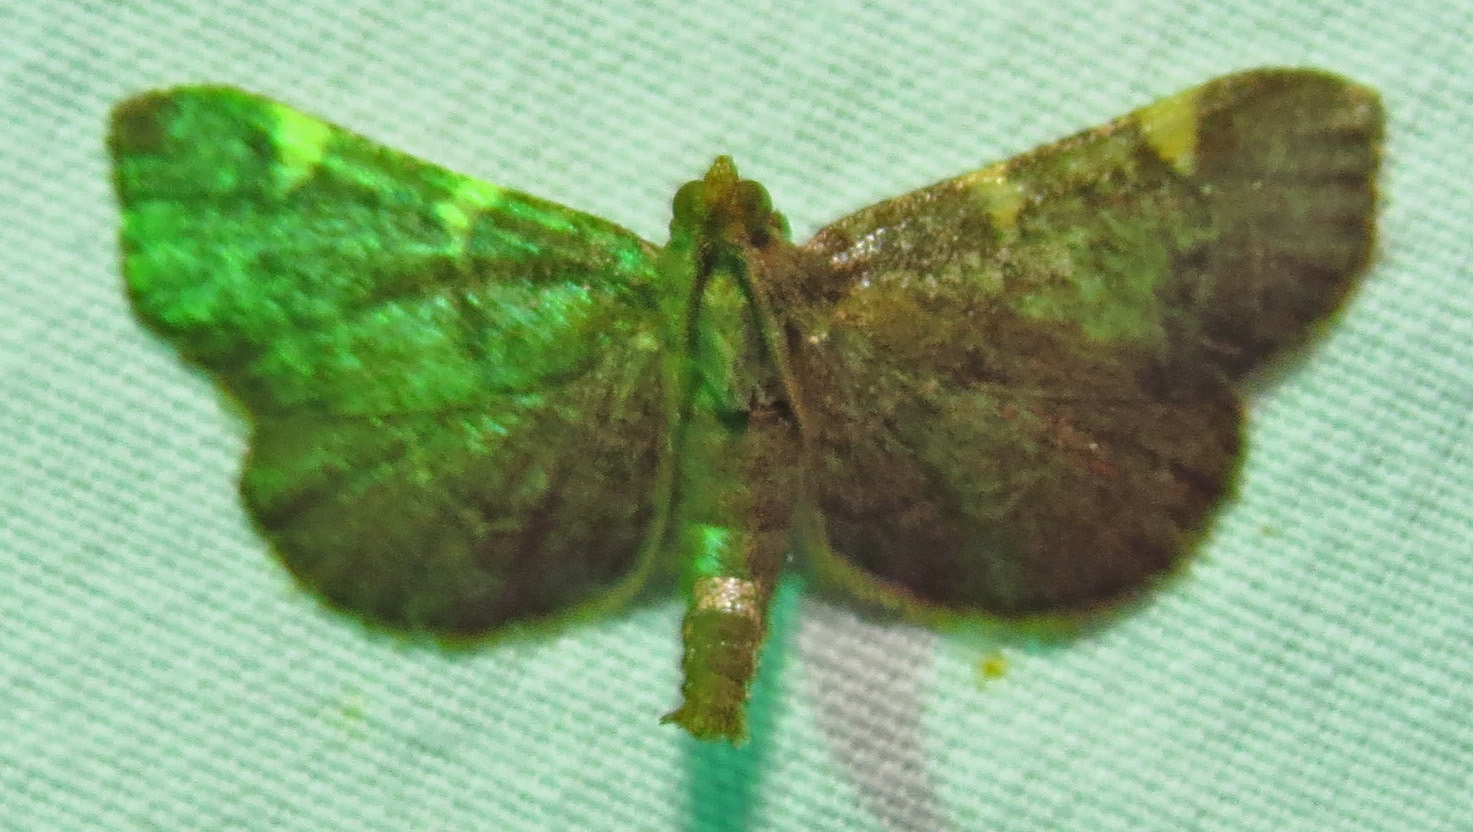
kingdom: Animalia
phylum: Arthropoda
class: Insecta
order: Lepidoptera
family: Pyralidae
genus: Hypsopygia
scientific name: Hypsopygia olinalis
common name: Yellow-fringed dolichomia moth
